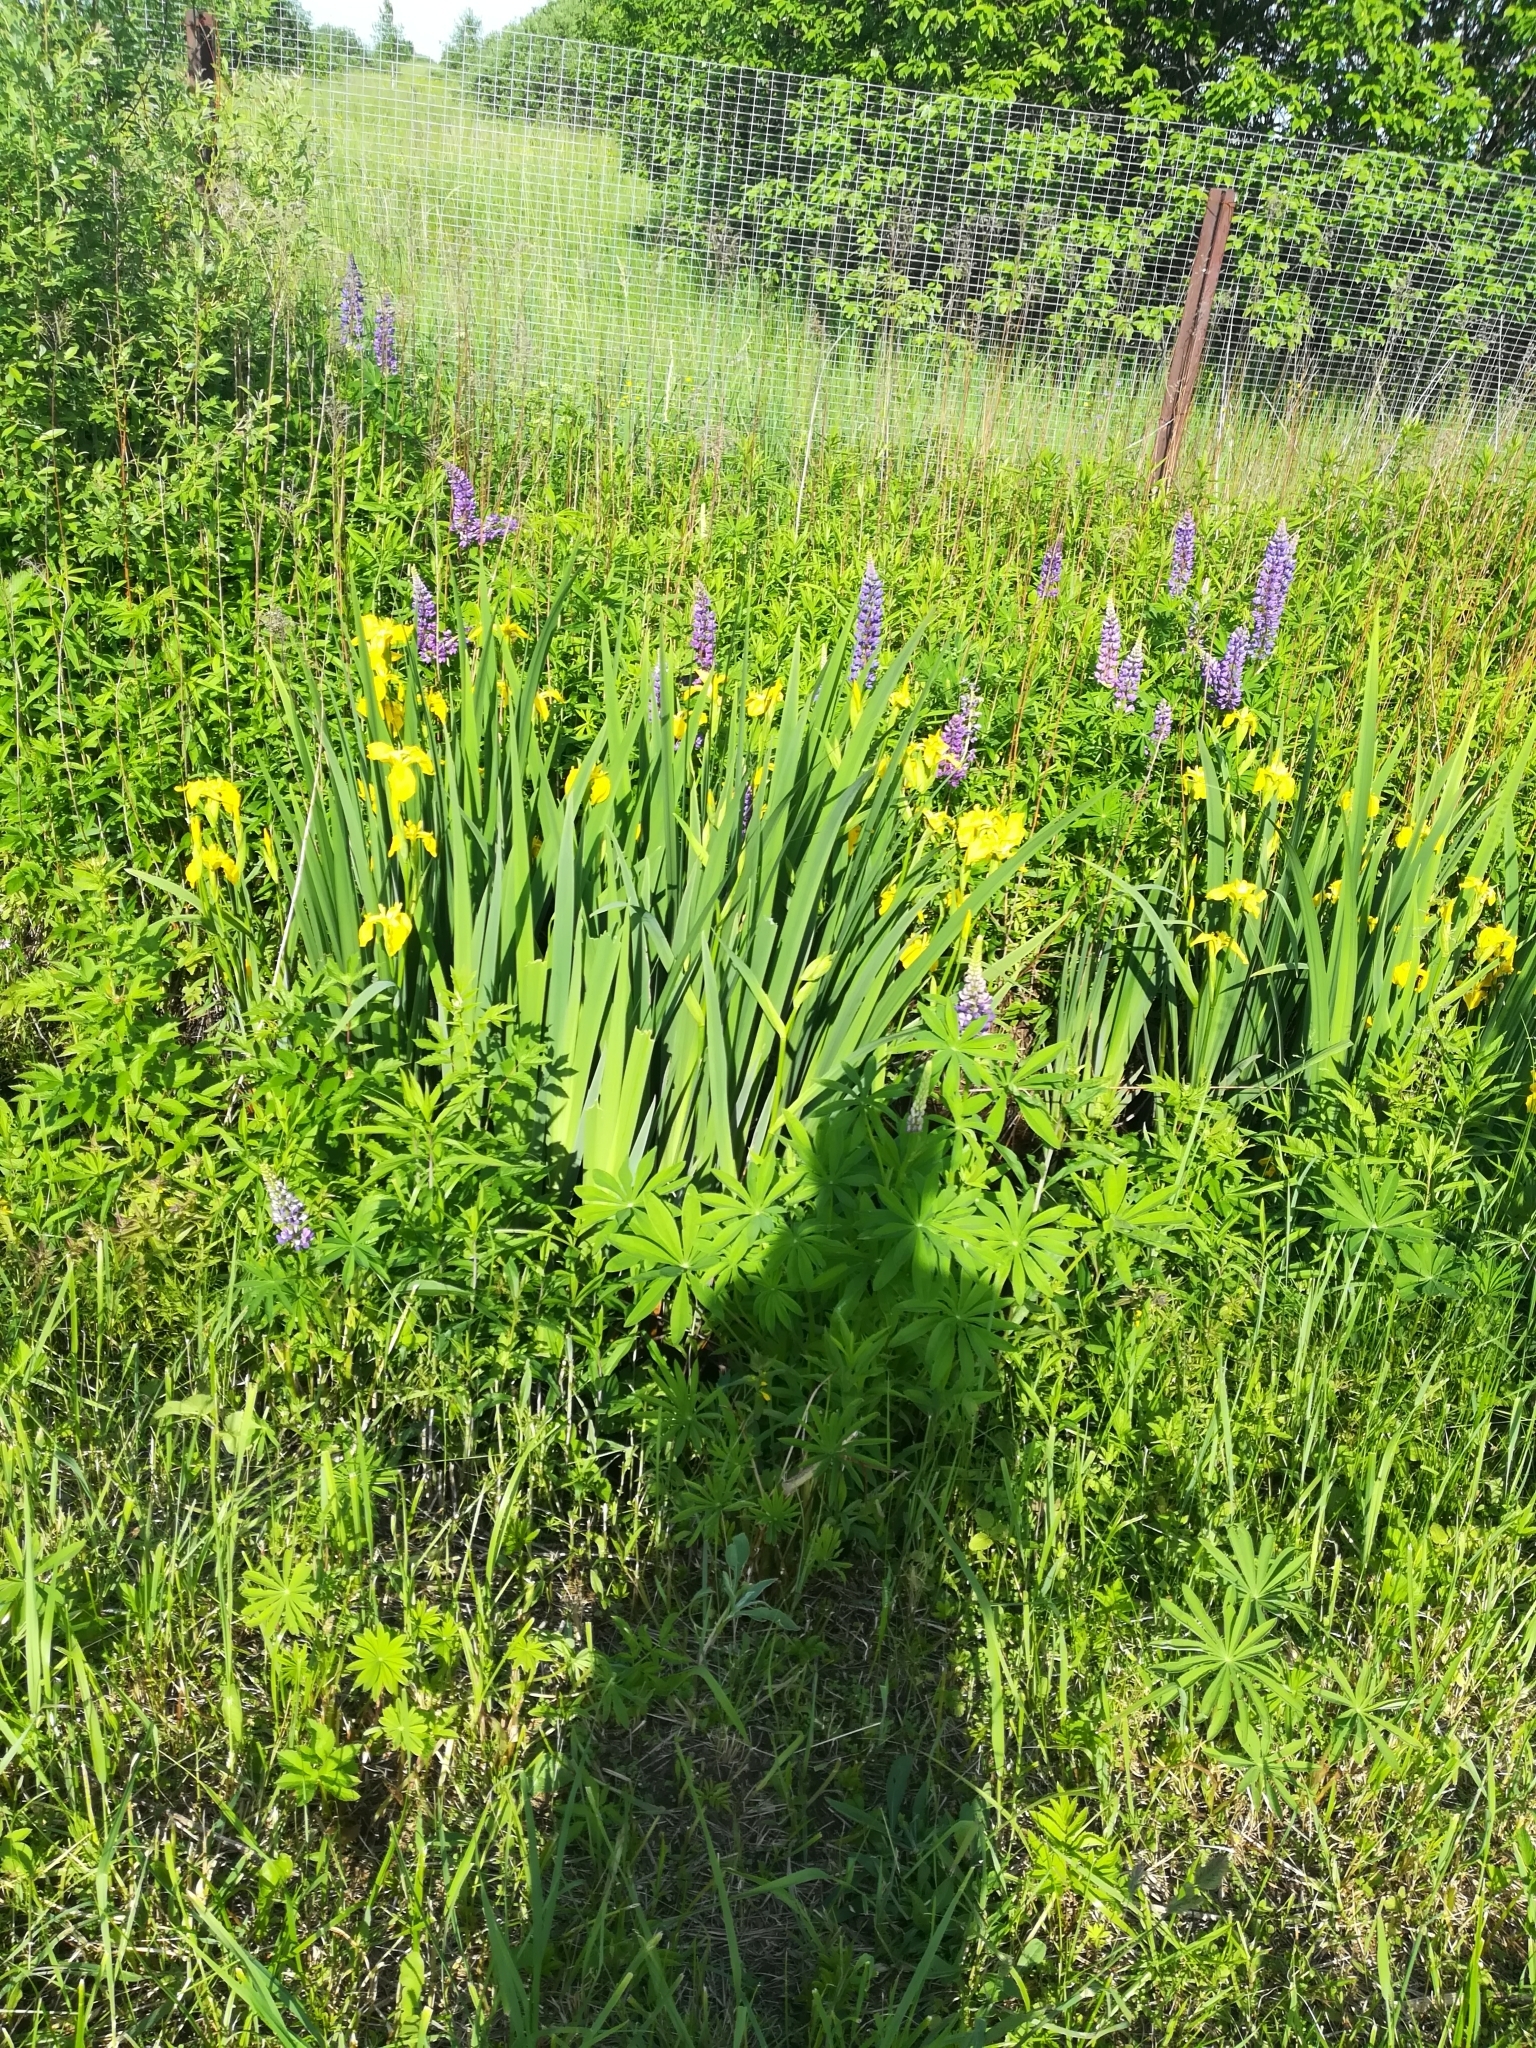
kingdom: Plantae
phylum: Tracheophyta
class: Liliopsida
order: Asparagales
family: Iridaceae
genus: Iris
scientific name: Iris pseudacorus
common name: Yellow flag
